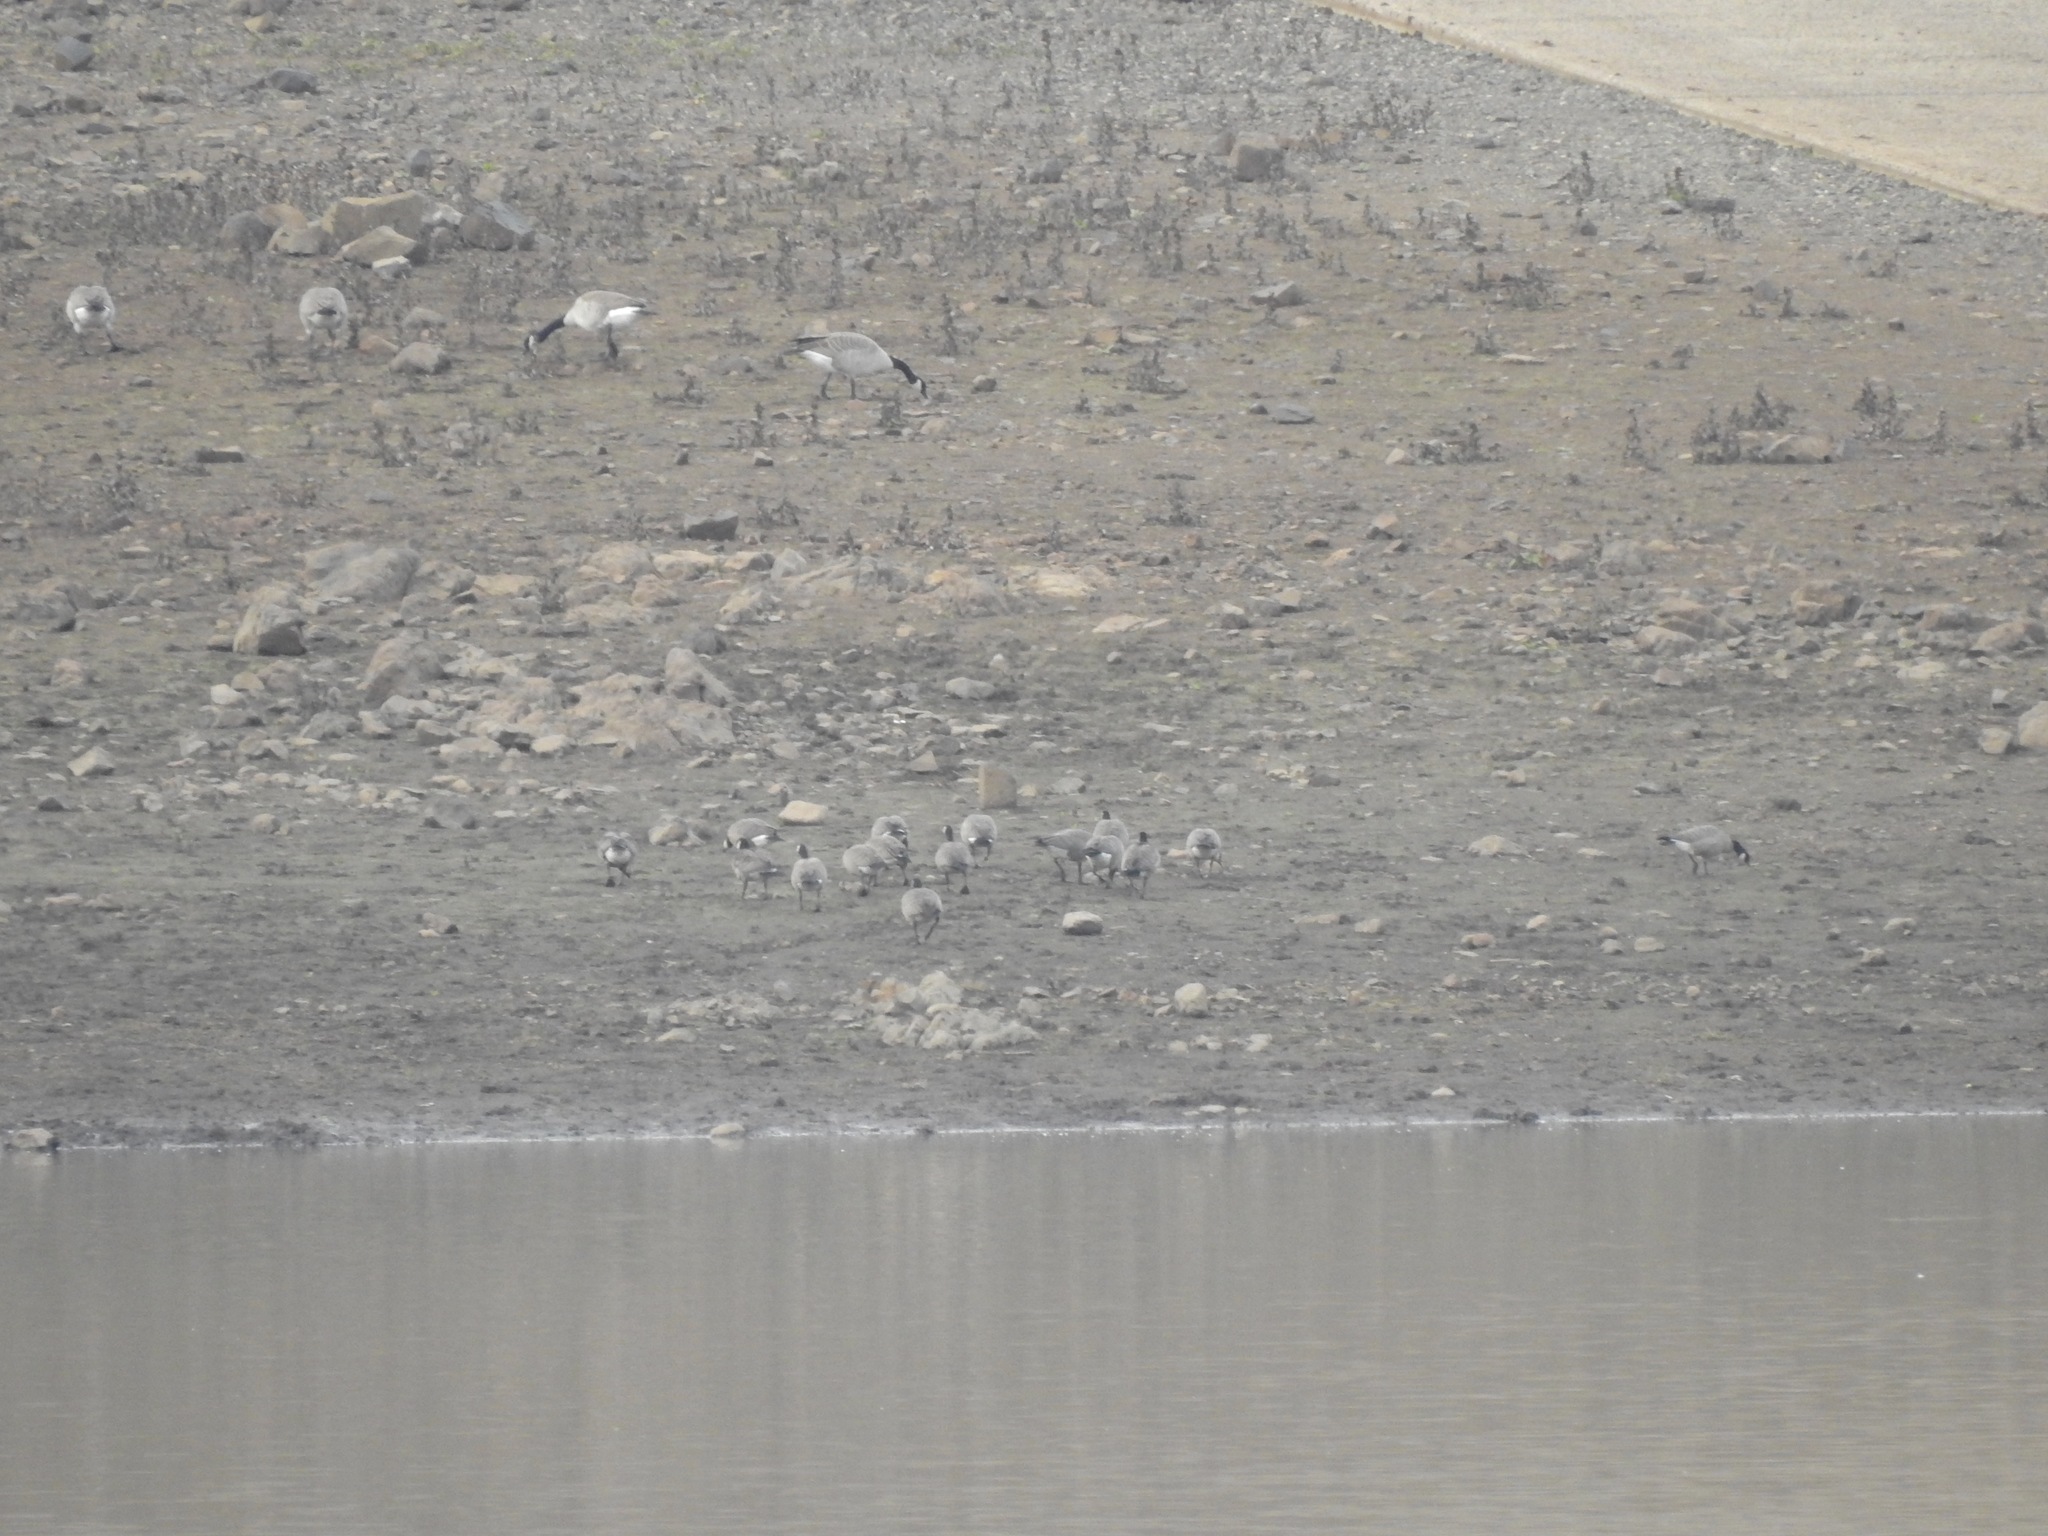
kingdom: Animalia
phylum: Chordata
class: Aves
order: Anseriformes
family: Anatidae
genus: Branta
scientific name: Branta hutchinsii
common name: Cackling goose
